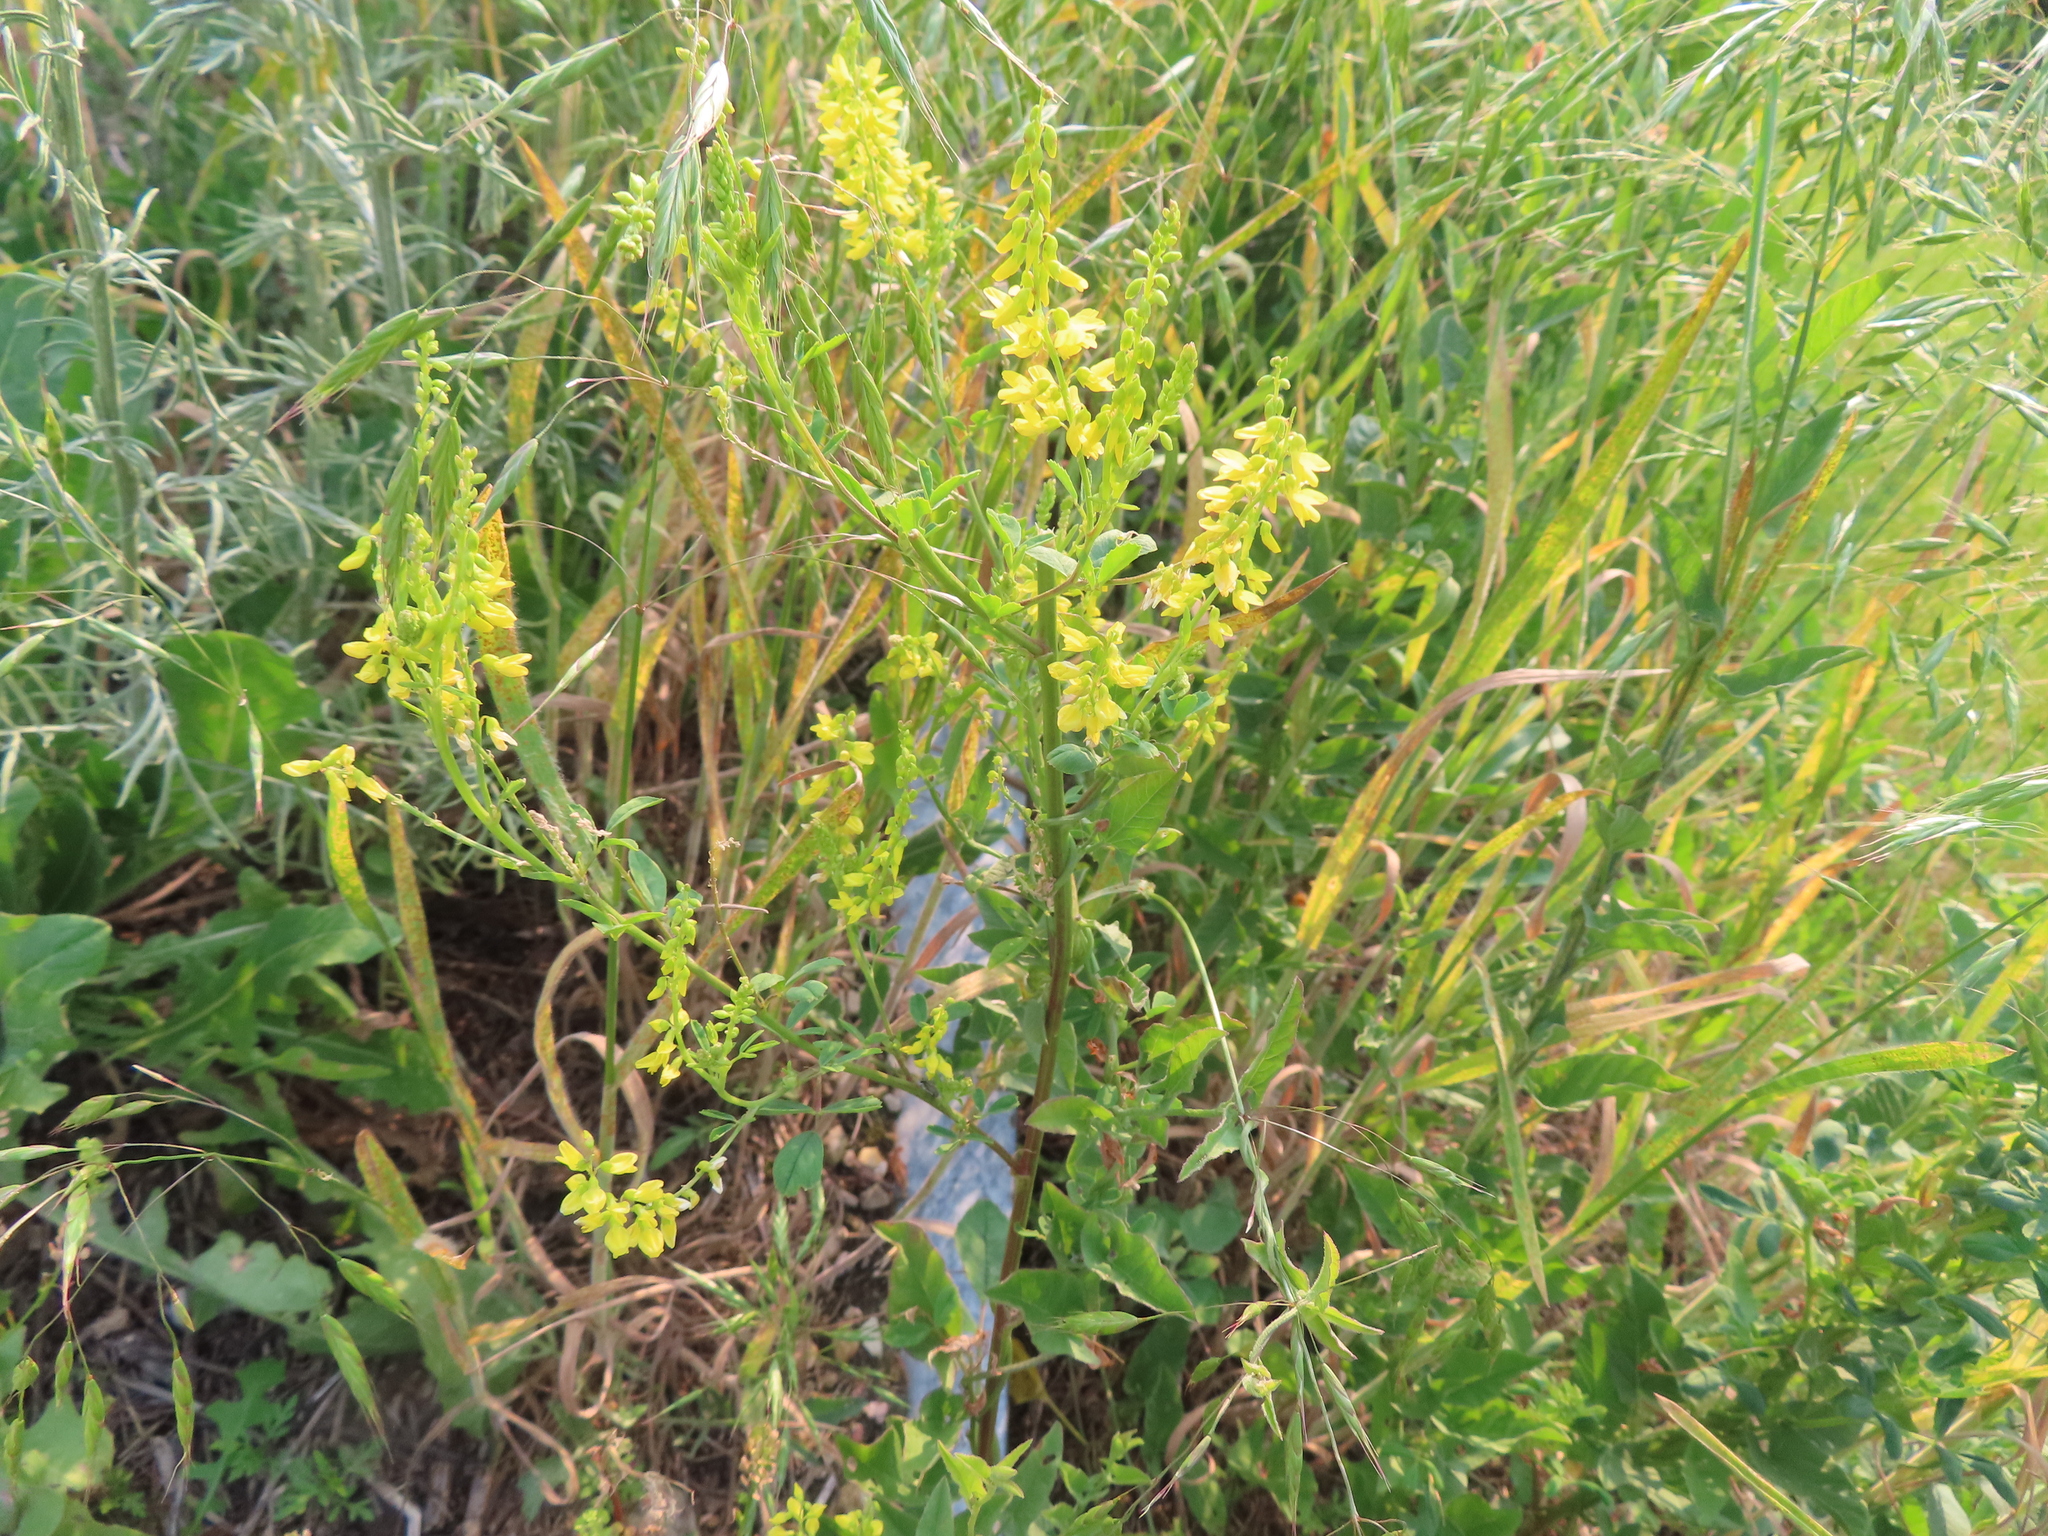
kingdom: Plantae
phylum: Tracheophyta
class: Magnoliopsida
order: Fabales
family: Fabaceae
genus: Melilotus
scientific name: Melilotus officinalis
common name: Sweetclover
